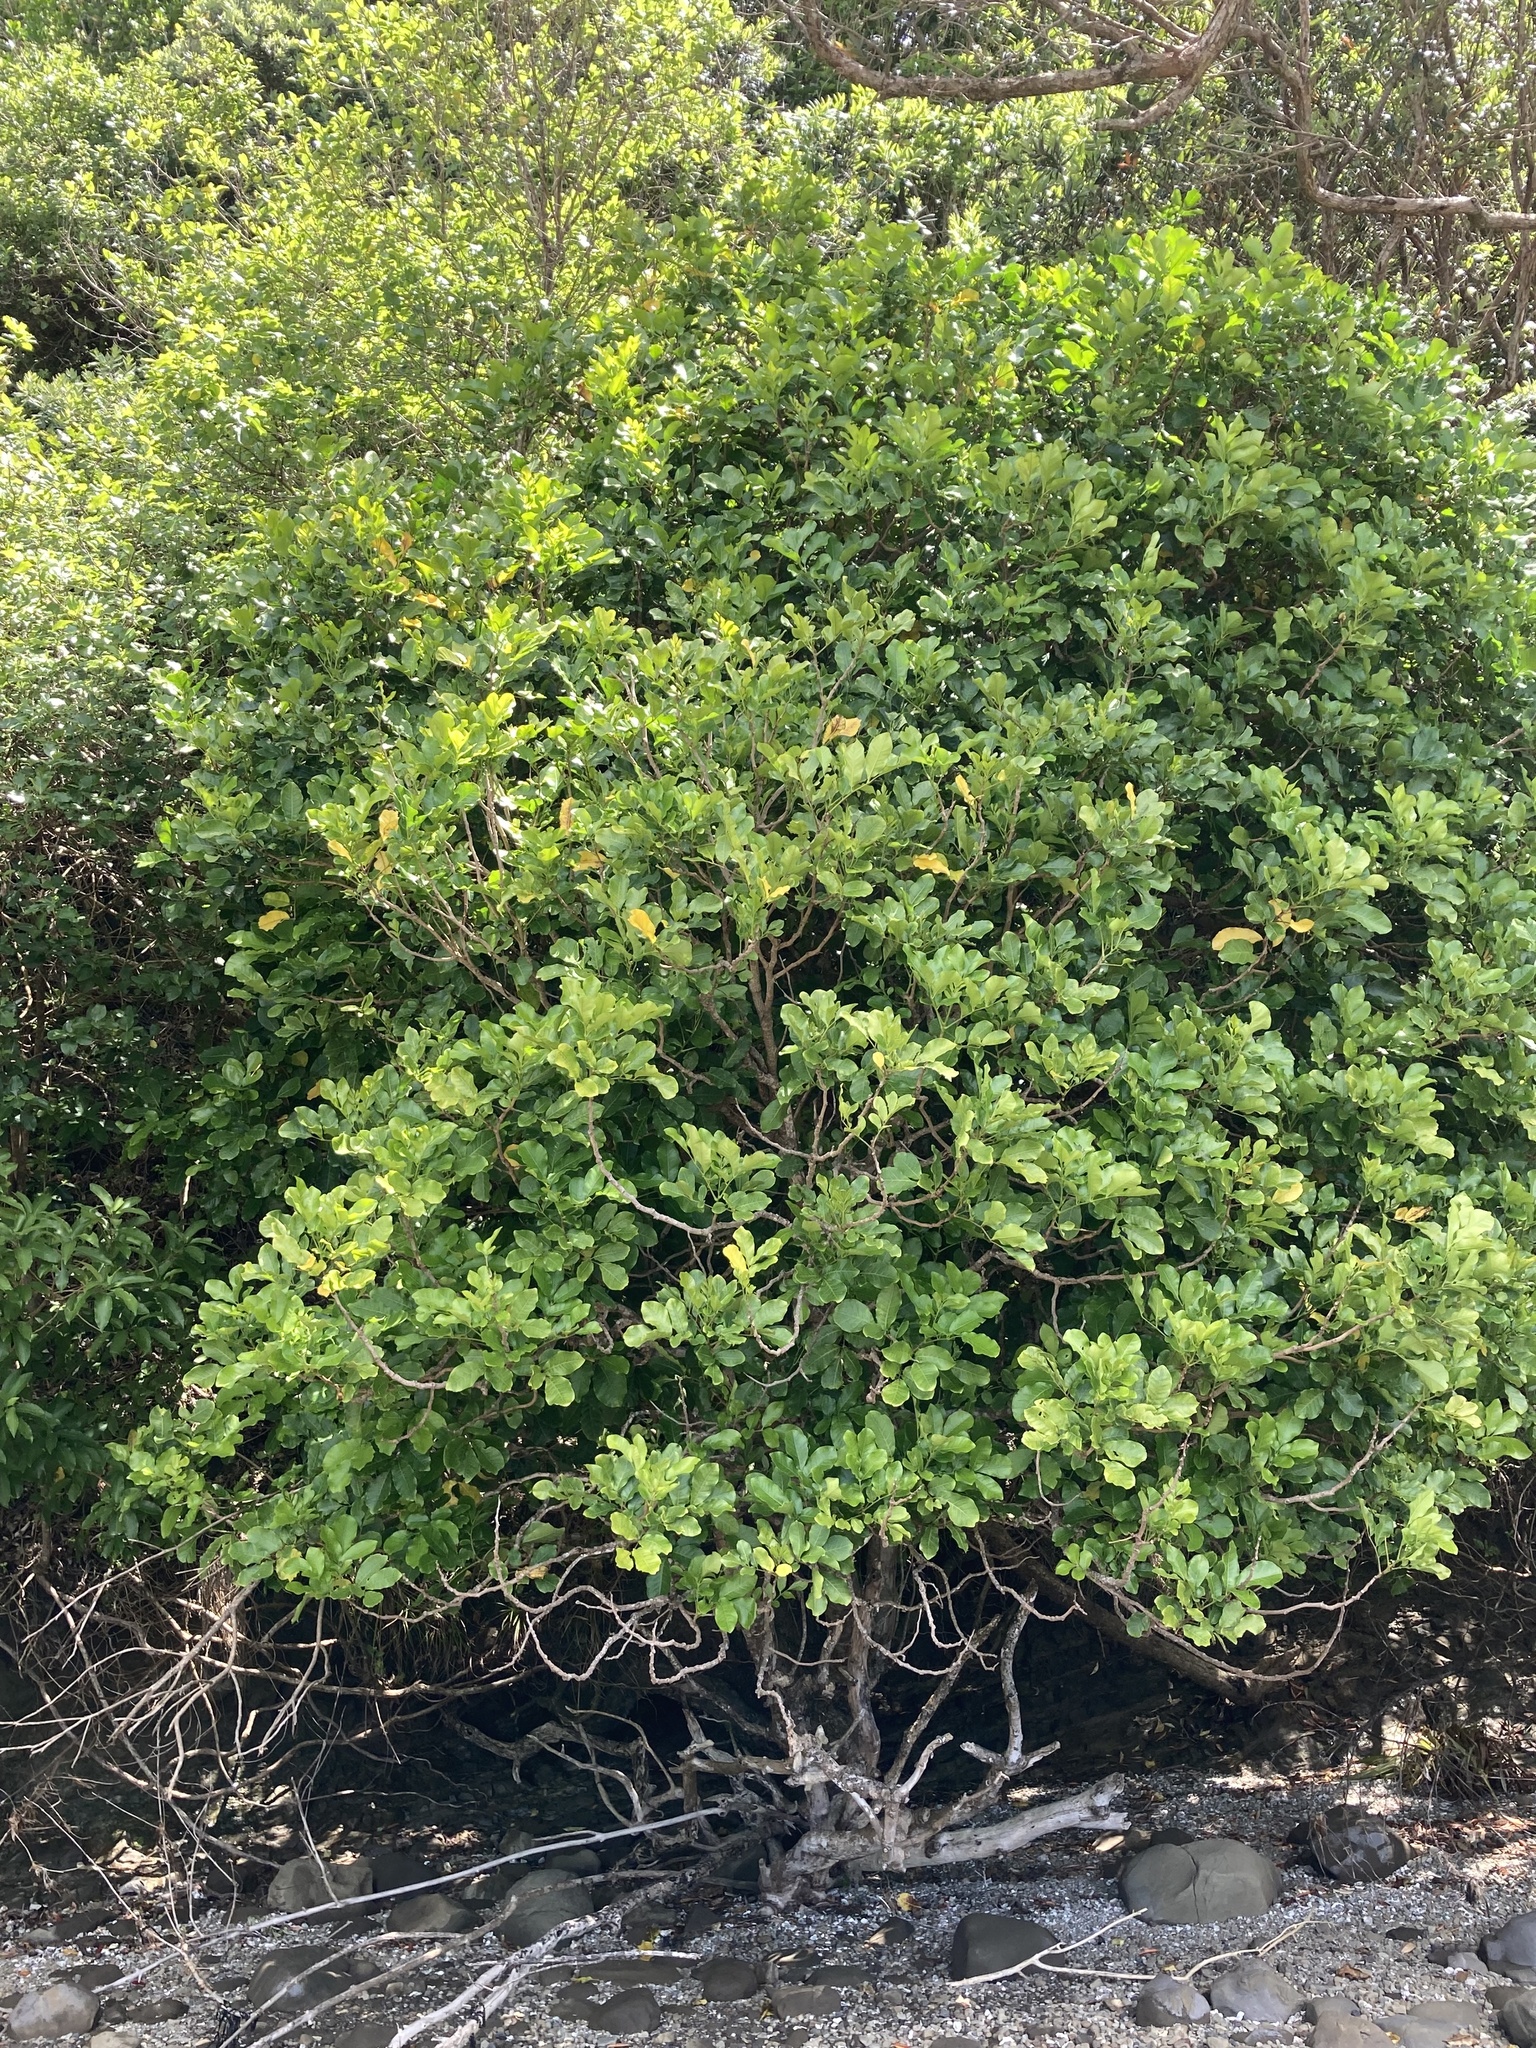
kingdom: Plantae
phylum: Tracheophyta
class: Magnoliopsida
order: Sapindales
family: Meliaceae
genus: Didymocheton
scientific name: Didymocheton spectabilis
